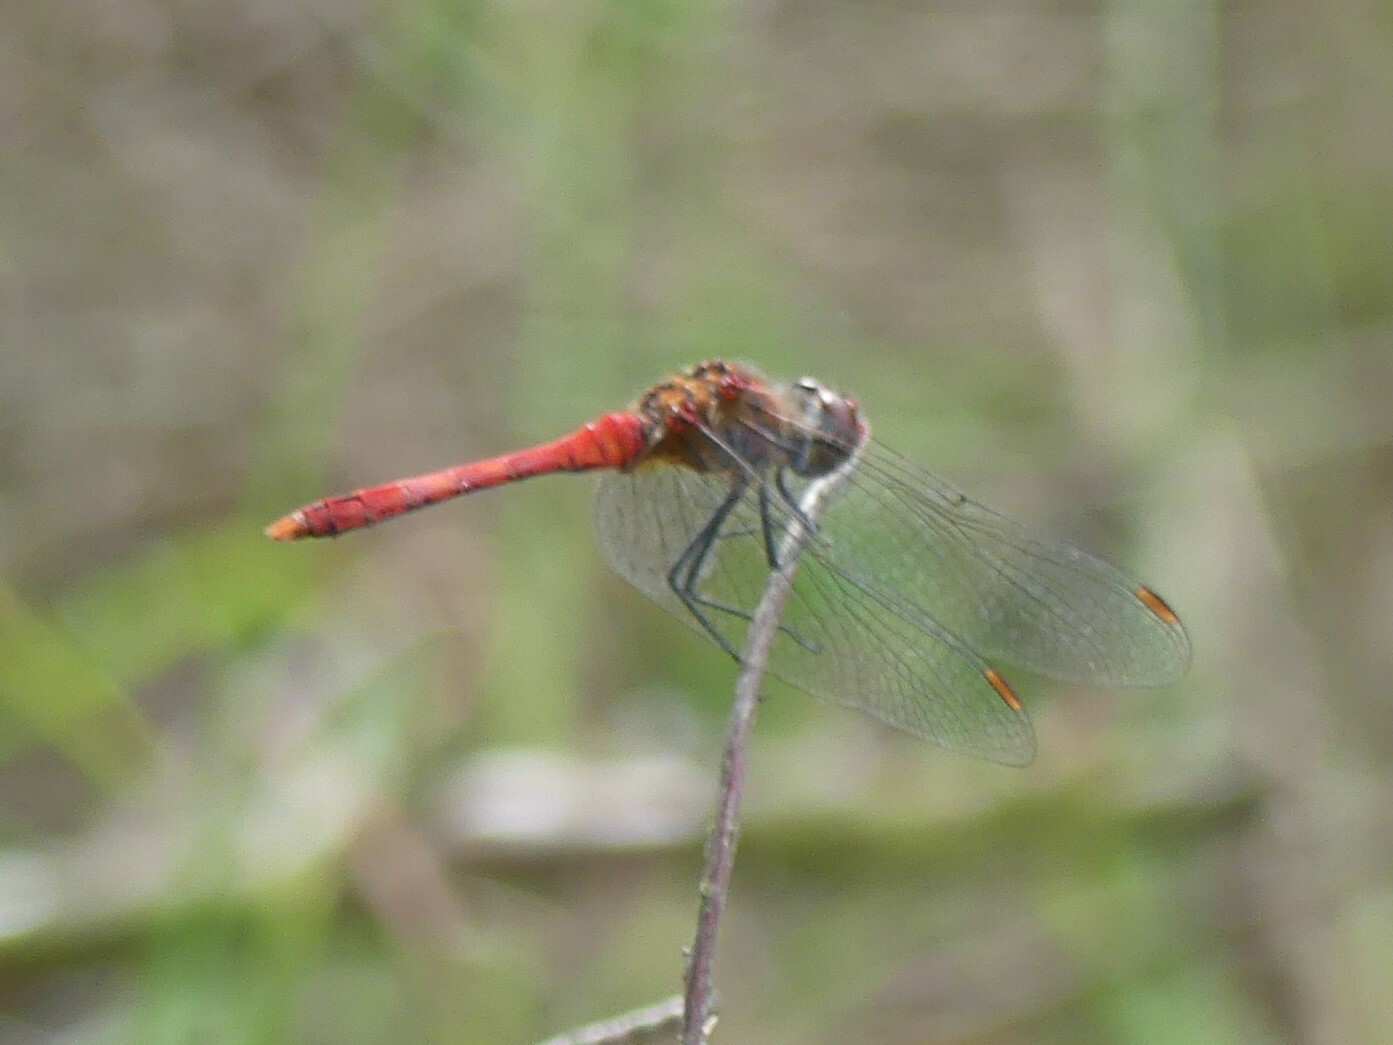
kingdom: Animalia
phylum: Arthropoda
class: Insecta
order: Odonata
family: Libellulidae
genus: Sympetrum
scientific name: Sympetrum sanguineum
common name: Ruddy darter
